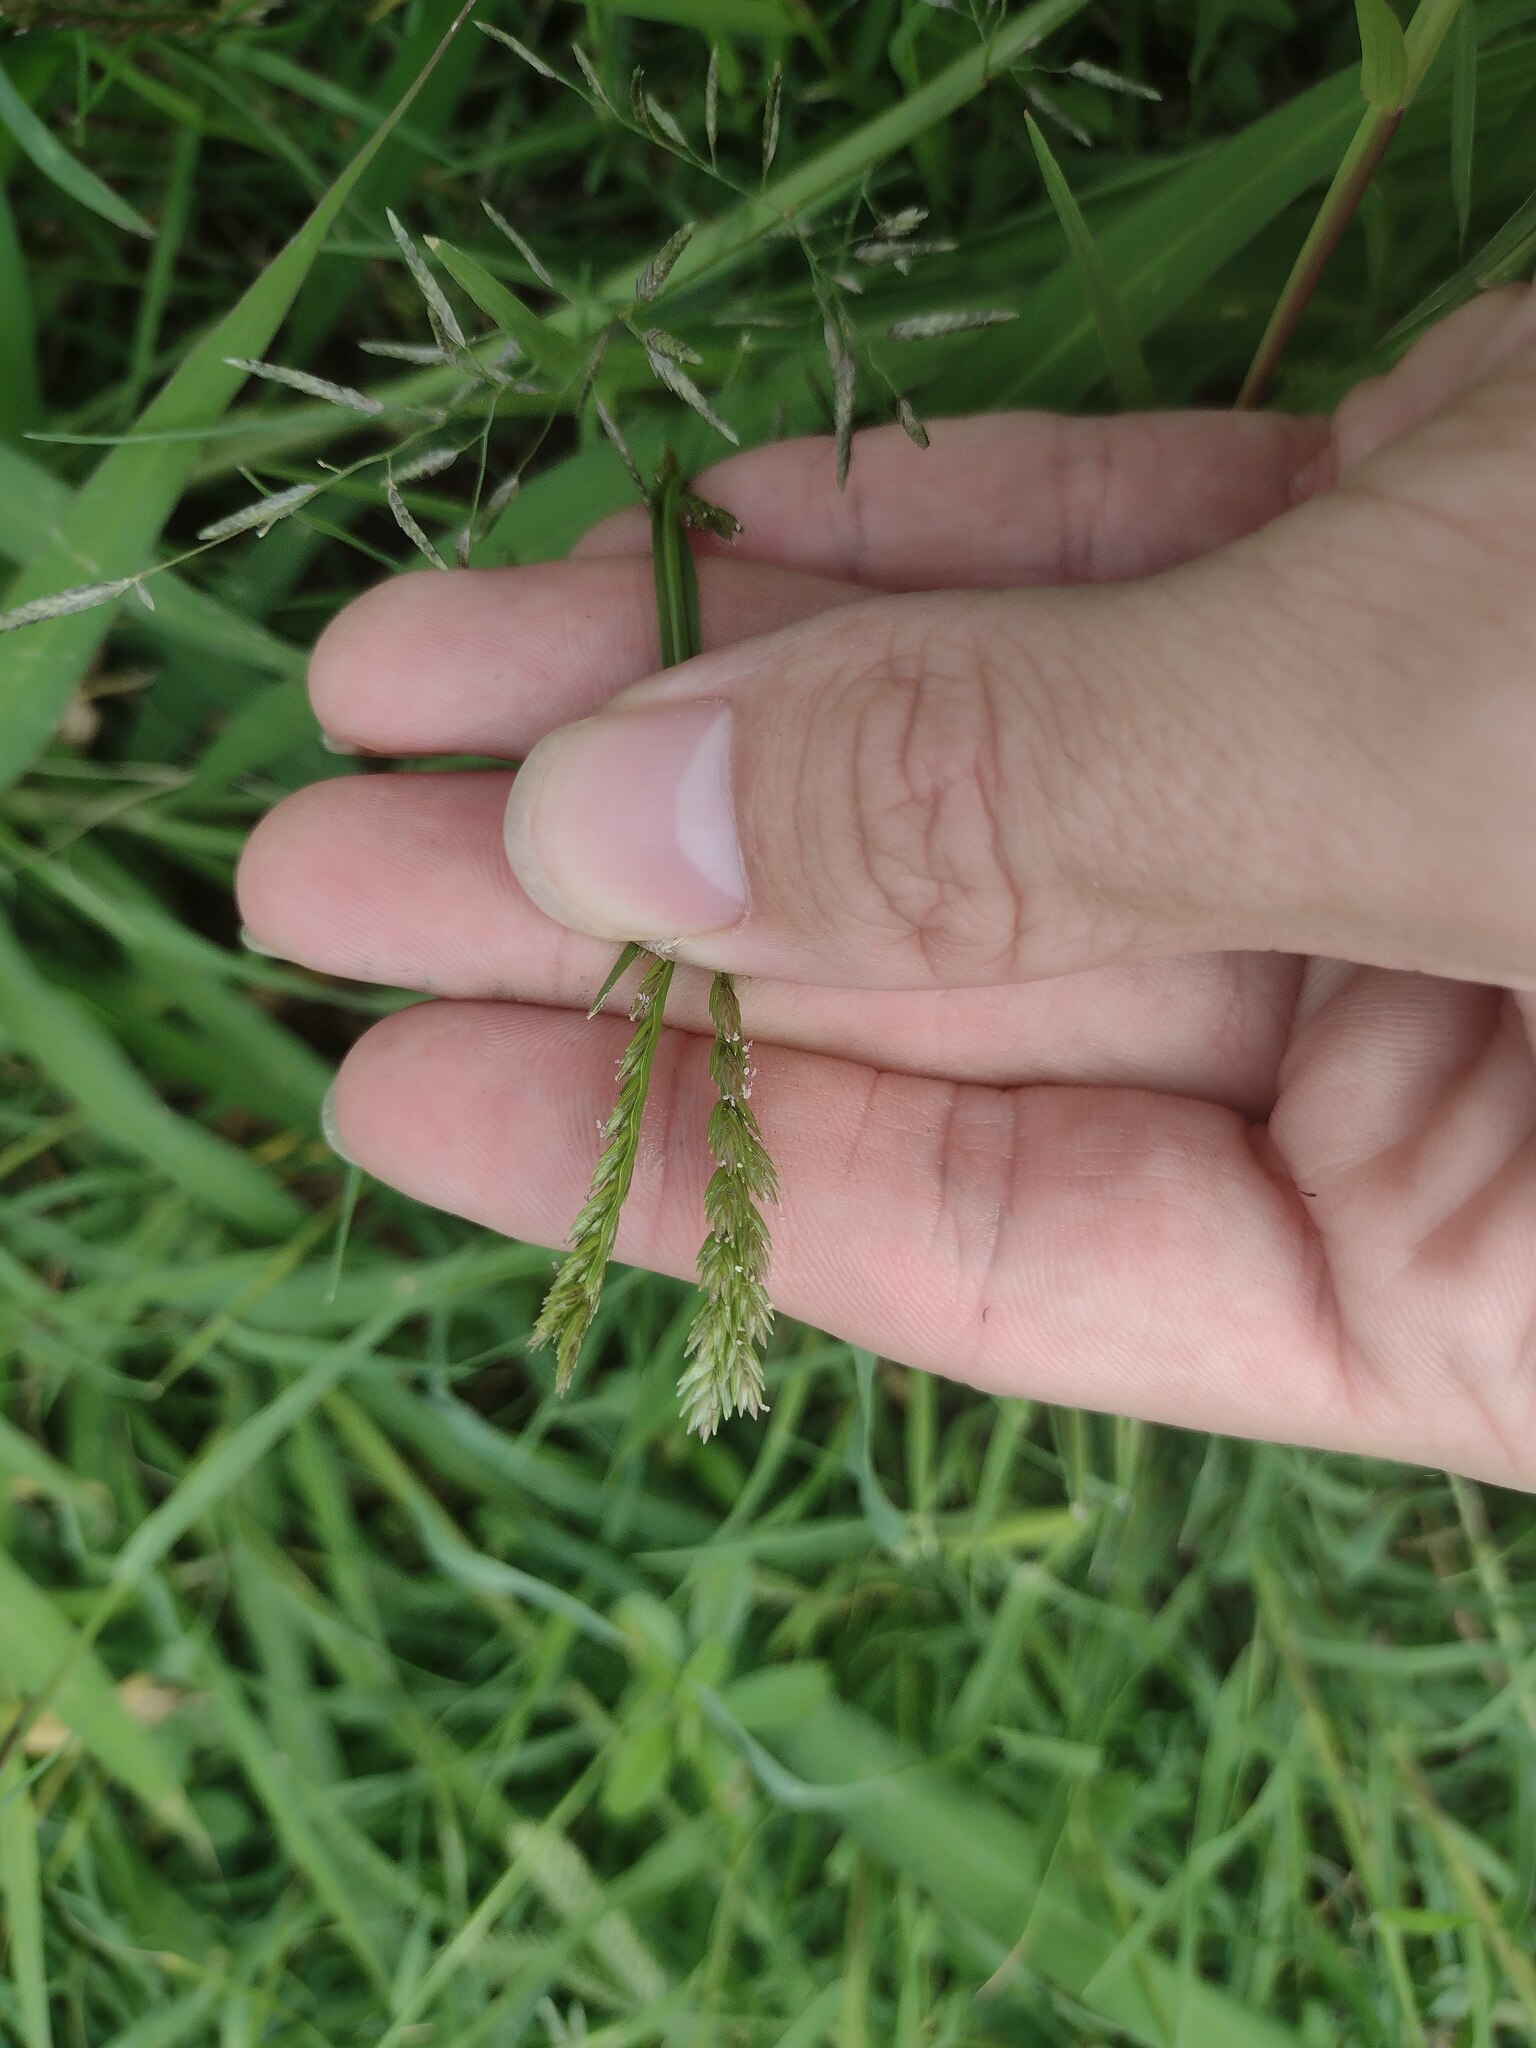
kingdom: Plantae
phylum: Tracheophyta
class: Liliopsida
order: Poales
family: Poaceae
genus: Eleusine
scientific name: Eleusine indica
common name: Yard-grass
